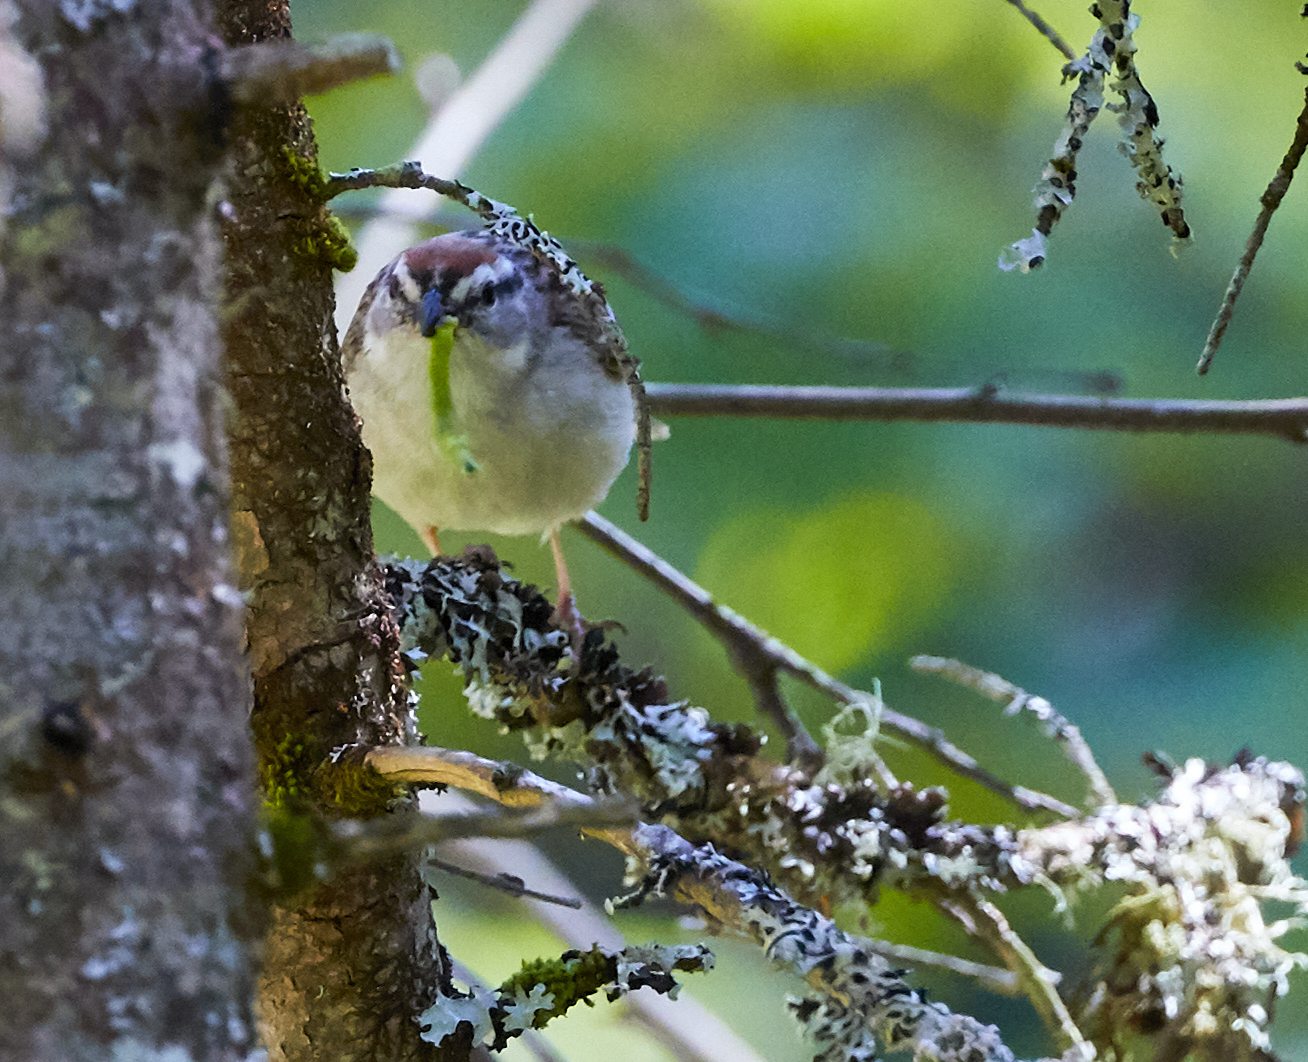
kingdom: Animalia
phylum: Chordata
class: Aves
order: Passeriformes
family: Passerellidae
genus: Spizella
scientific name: Spizella passerina
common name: Chipping sparrow
